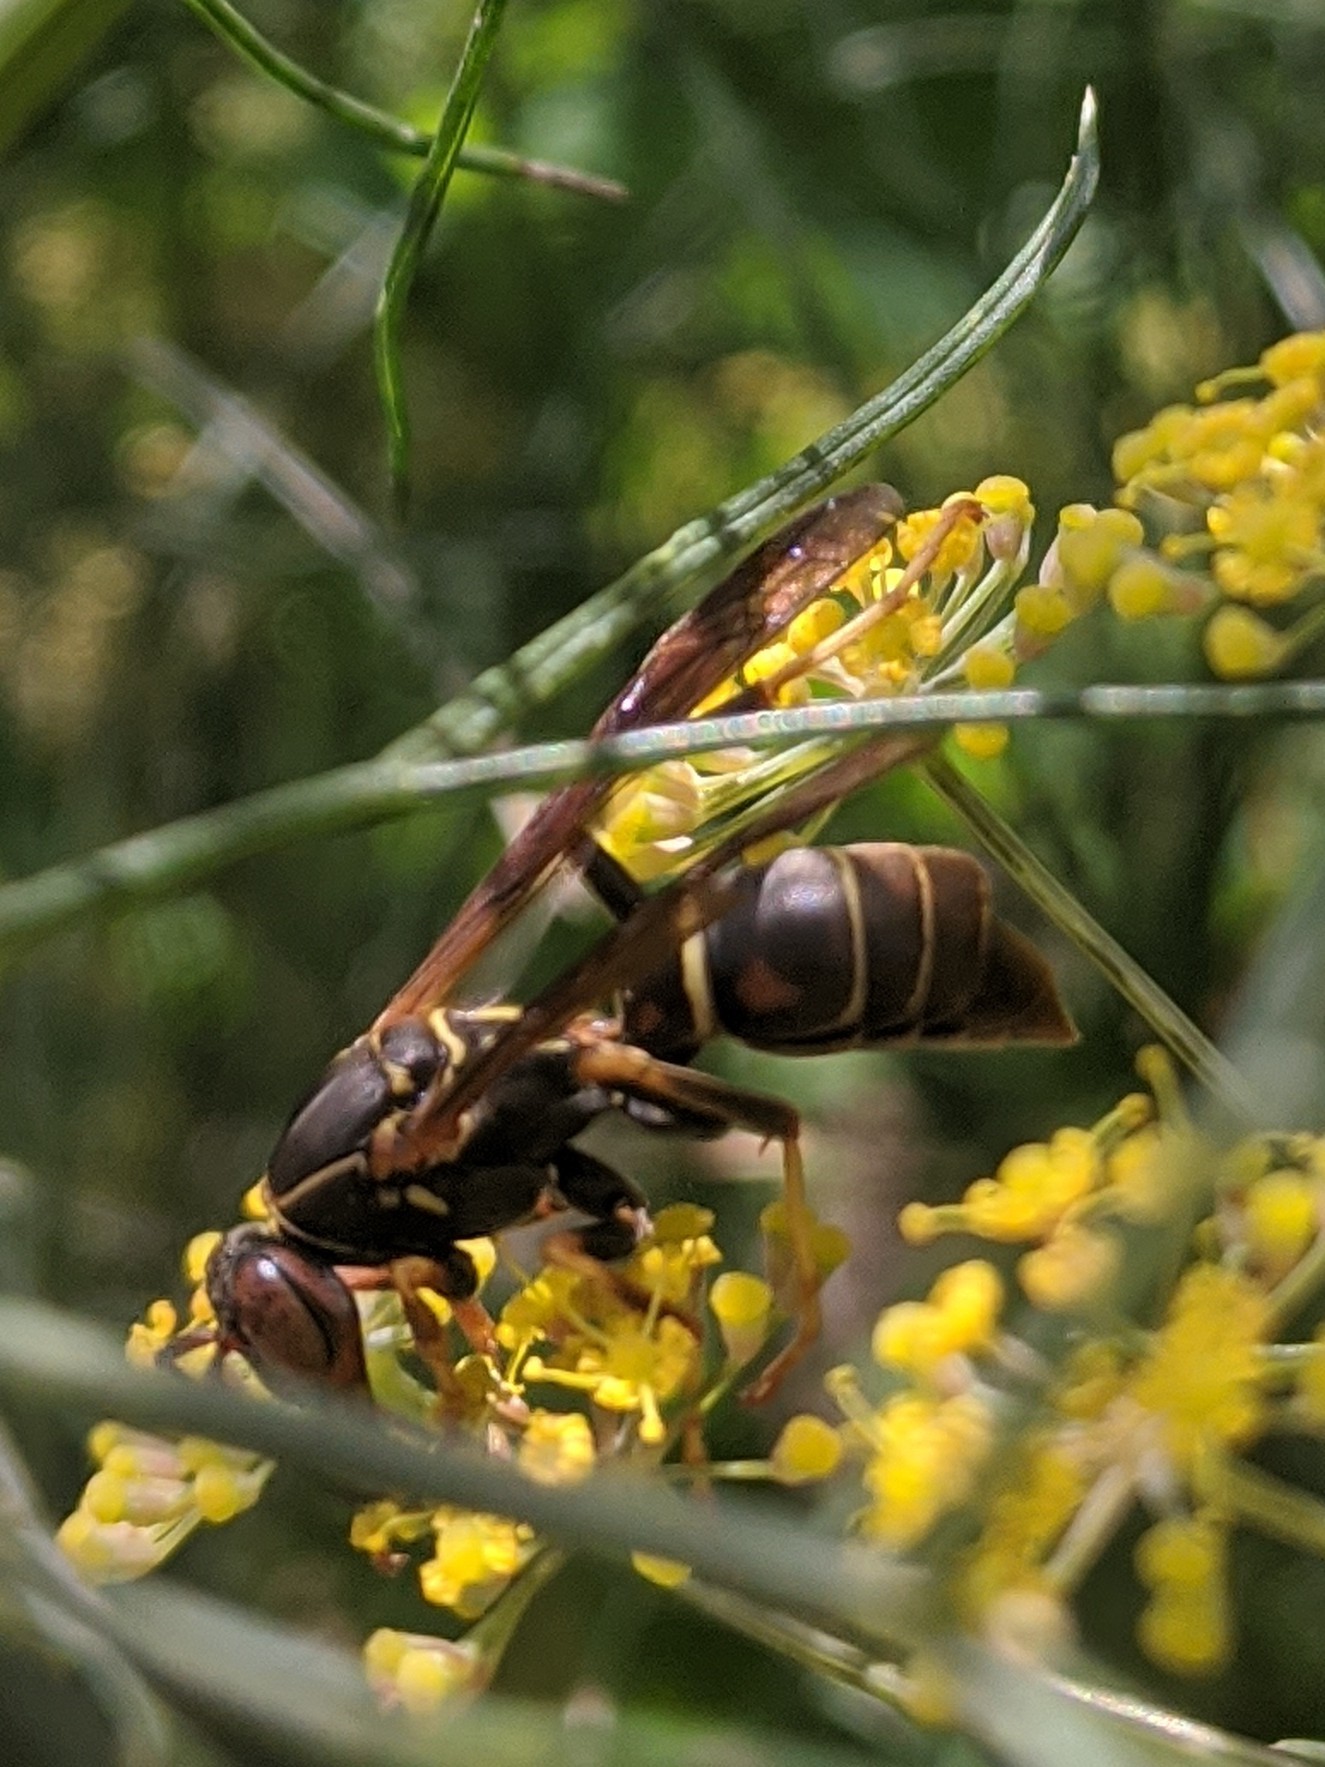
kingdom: Animalia
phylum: Arthropoda
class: Insecta
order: Strepsiptera
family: Xenidae
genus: Xenos
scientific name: Xenos pecki
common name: Twisted wing parasite
